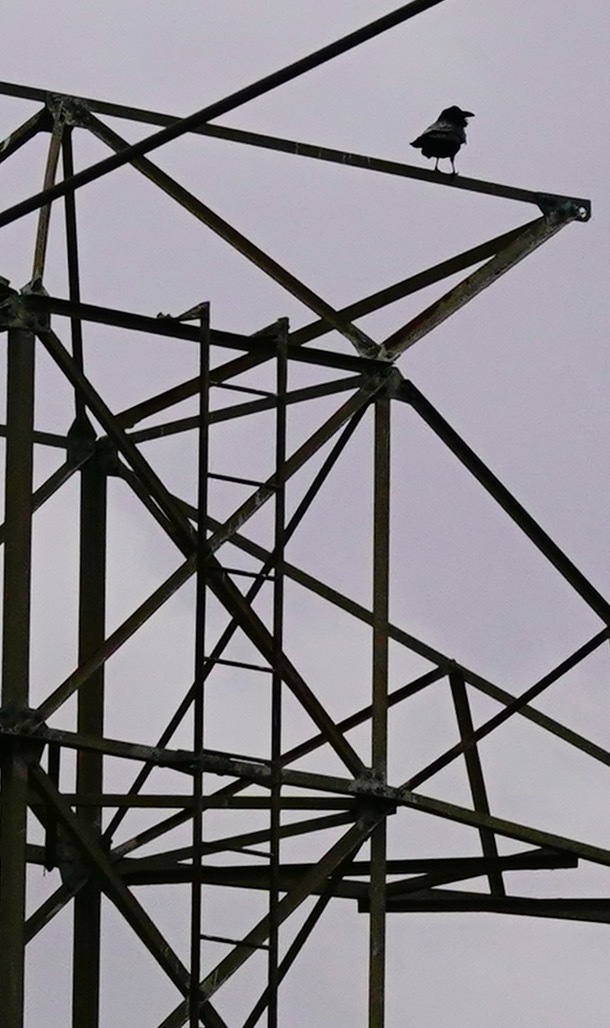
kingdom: Animalia
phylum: Chordata
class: Aves
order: Passeriformes
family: Corvidae
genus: Corvus
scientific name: Corvus corax
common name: Common raven
